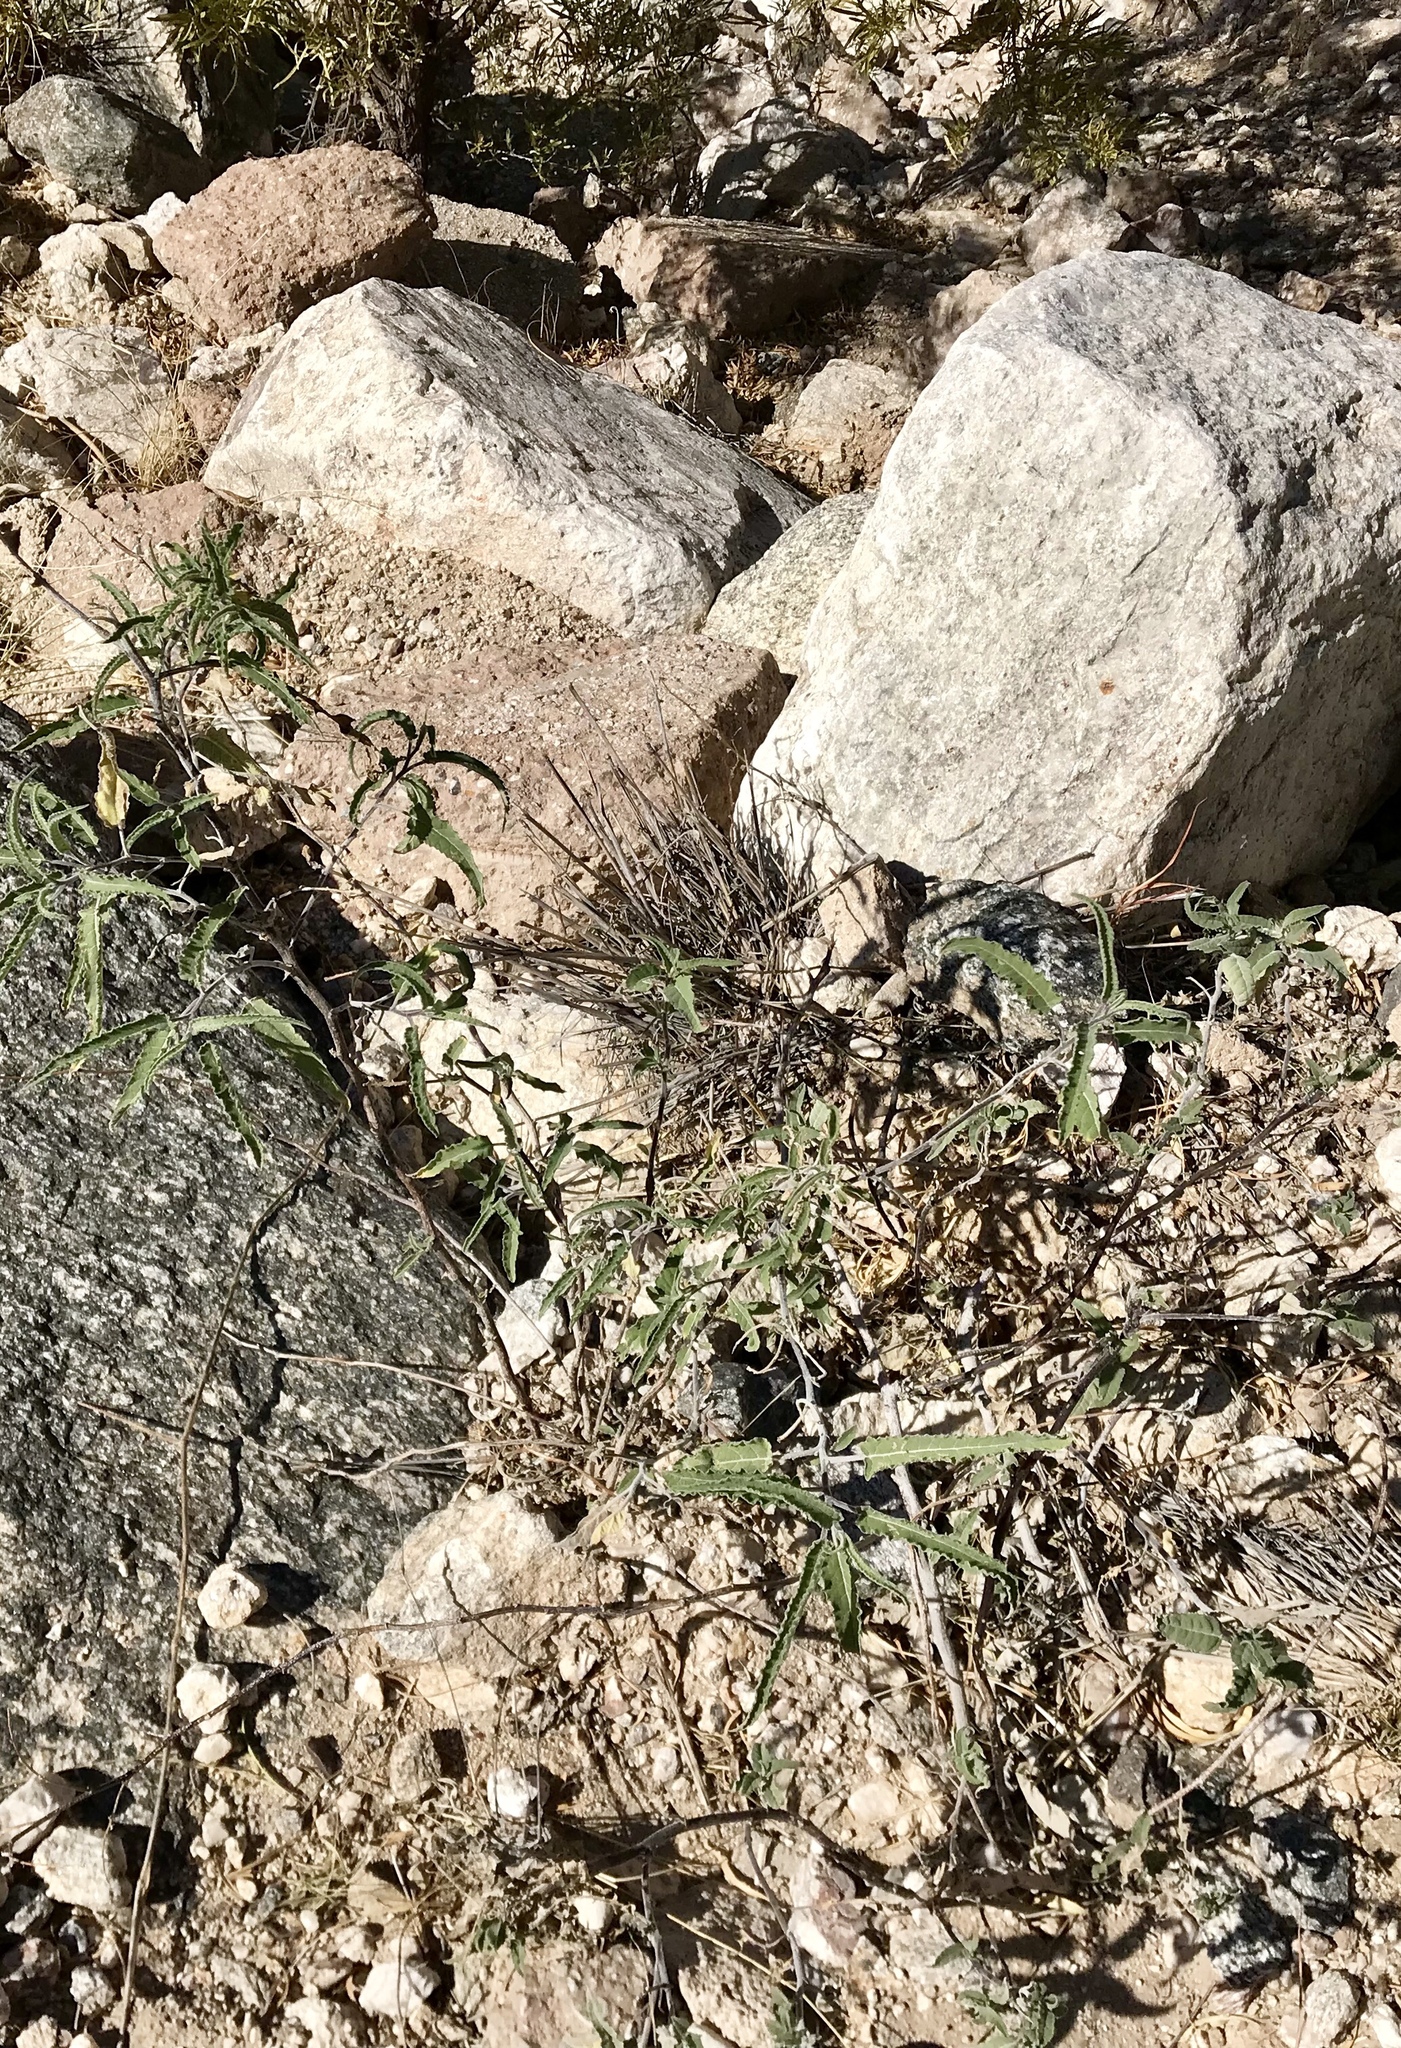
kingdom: Plantae
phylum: Tracheophyta
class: Magnoliopsida
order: Asterales
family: Asteraceae
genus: Ambrosia
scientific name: Ambrosia ambrosioides
